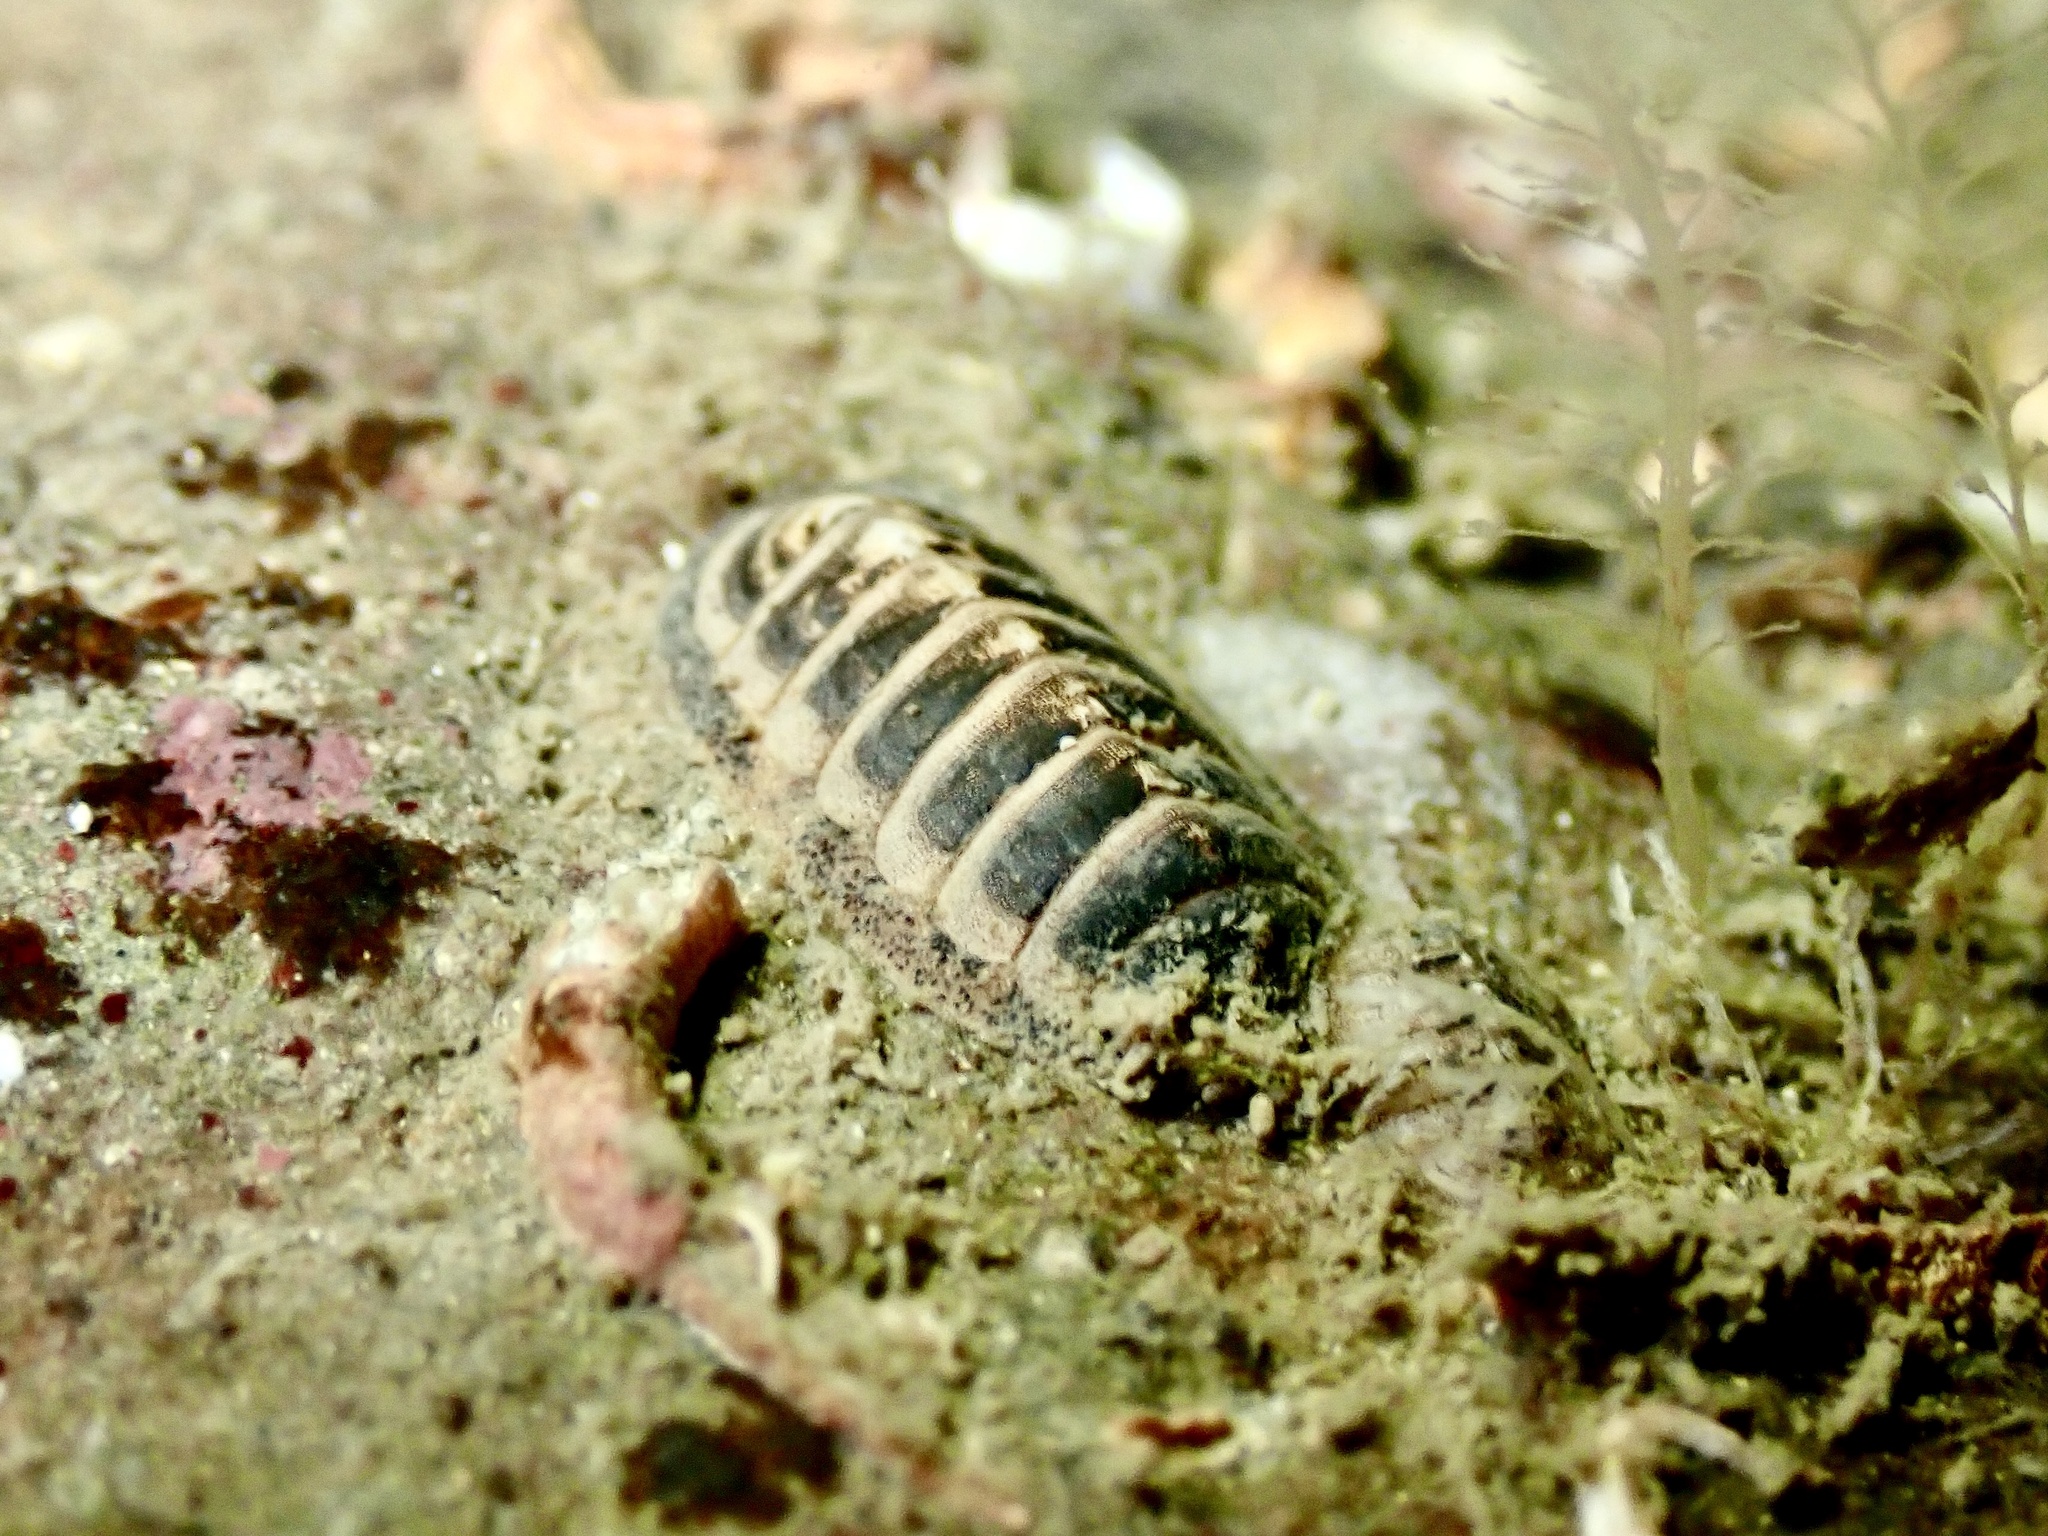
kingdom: Animalia
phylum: Mollusca
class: Polyplacophora
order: Lepidopleurida
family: Leptochitonidae
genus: Leptochiton
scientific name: Leptochiton asellus
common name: Coat-of-mail chiton
